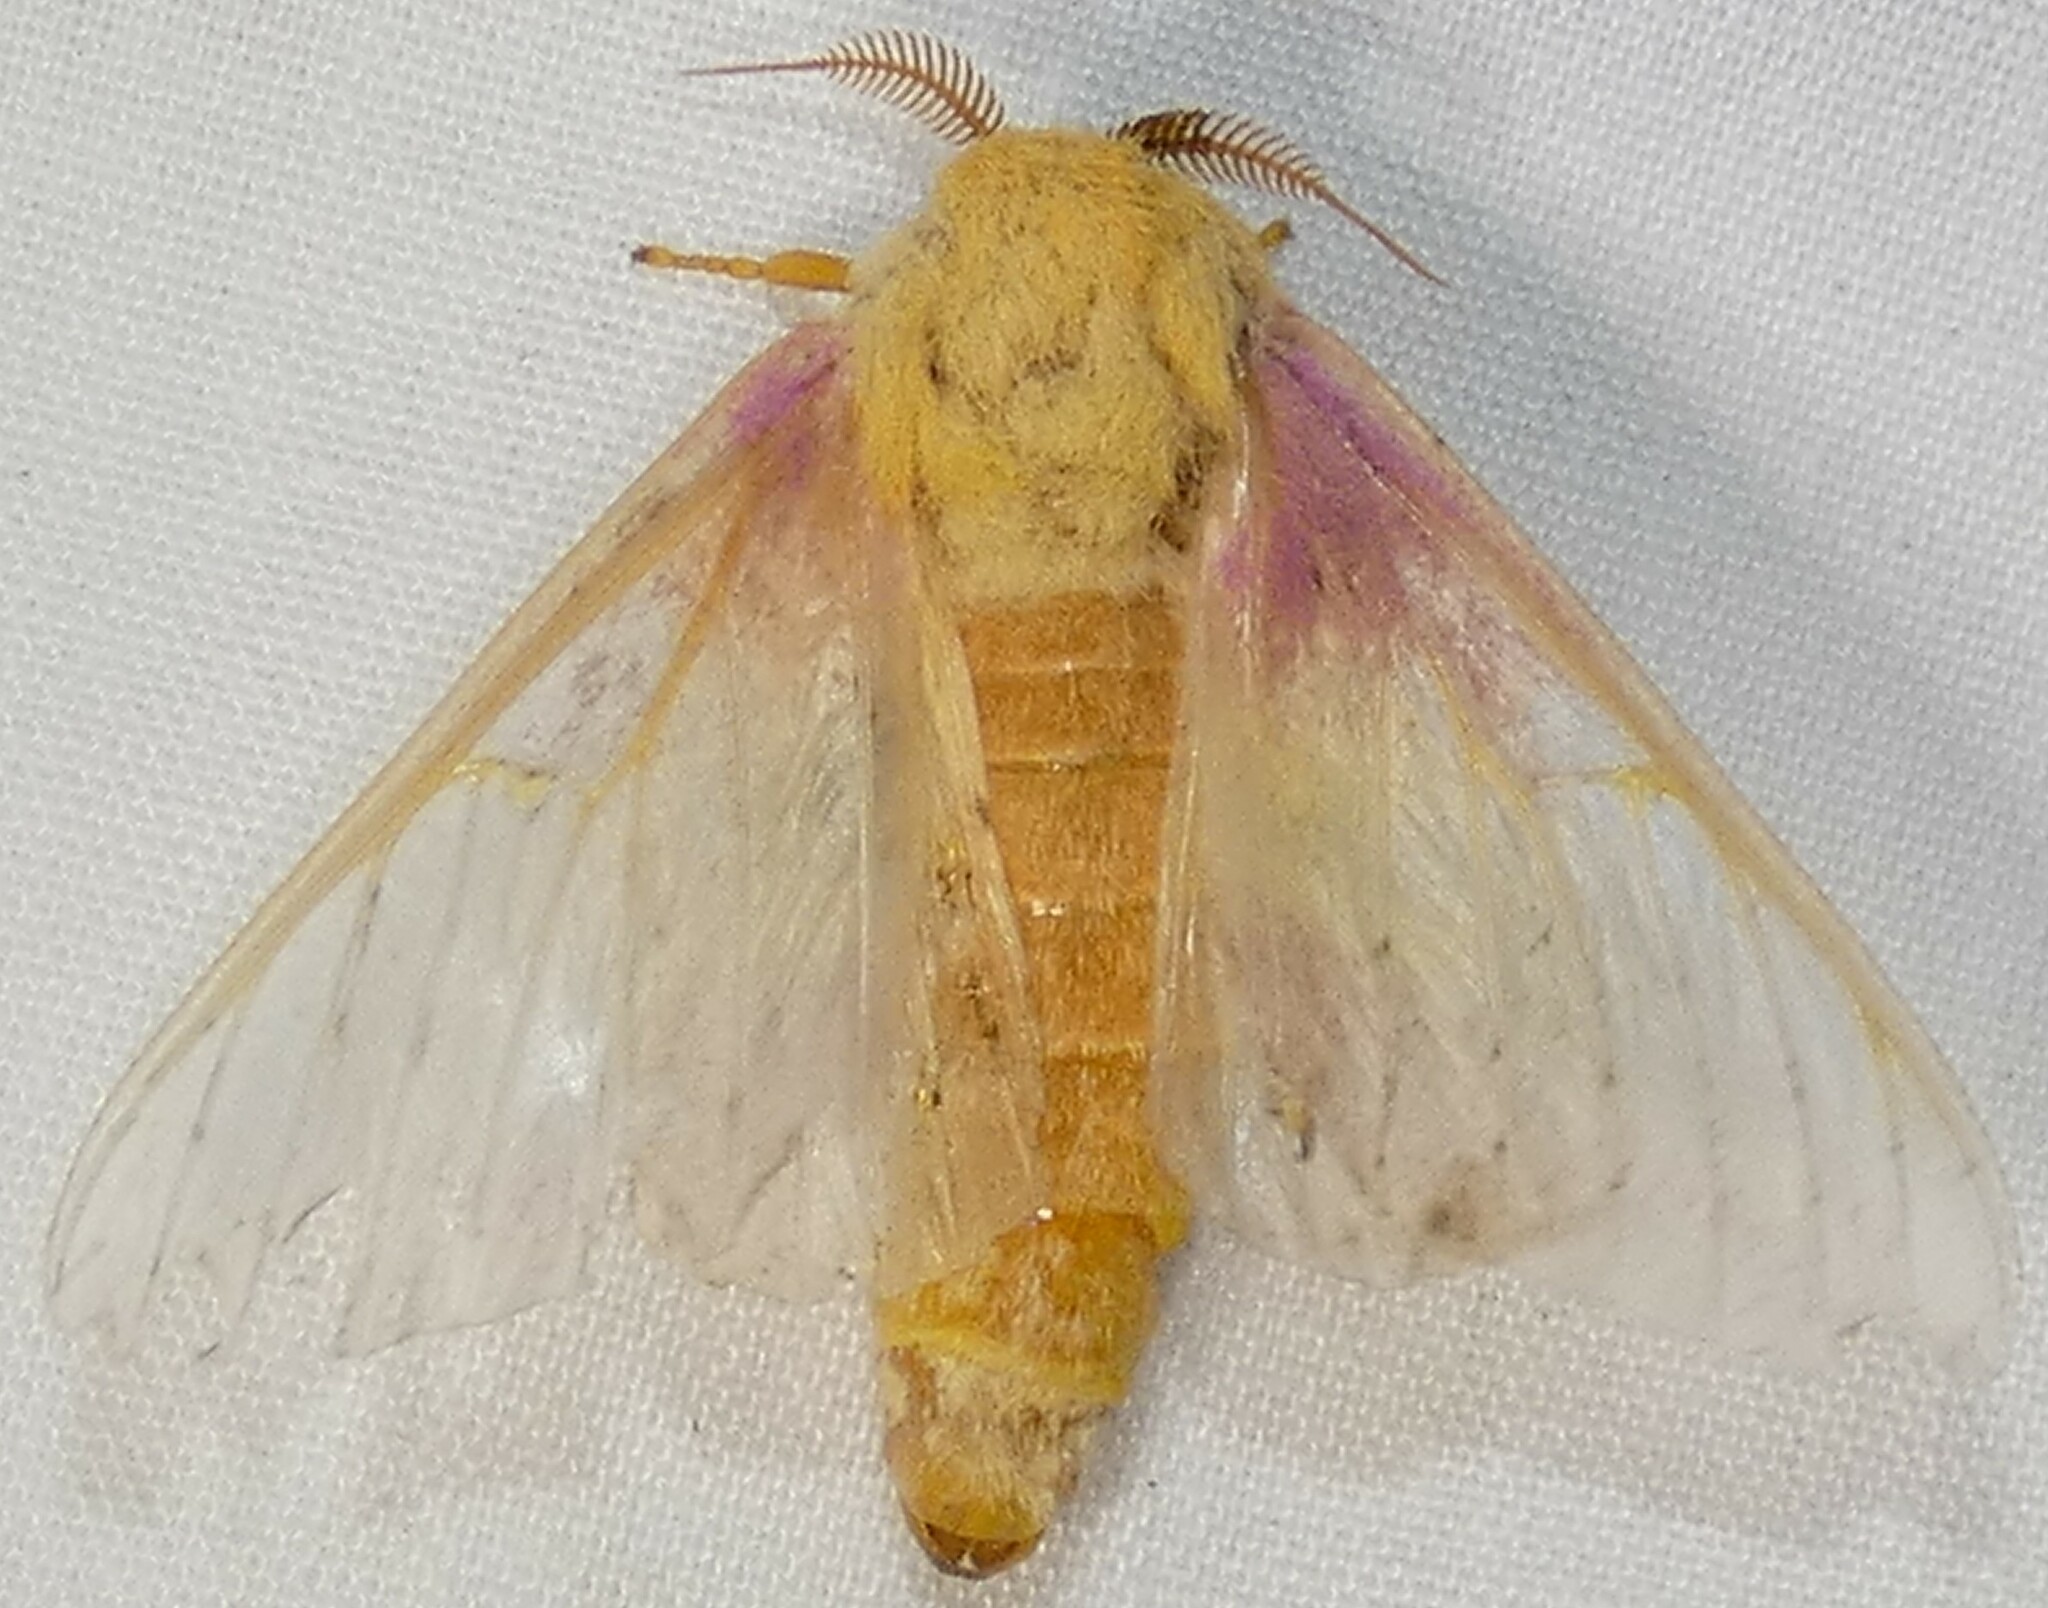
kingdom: Animalia
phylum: Arthropoda
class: Insecta
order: Lepidoptera
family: Saturniidae
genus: Dryocampa
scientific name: Dryocampa rubicunda
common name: Rosy maple moth
